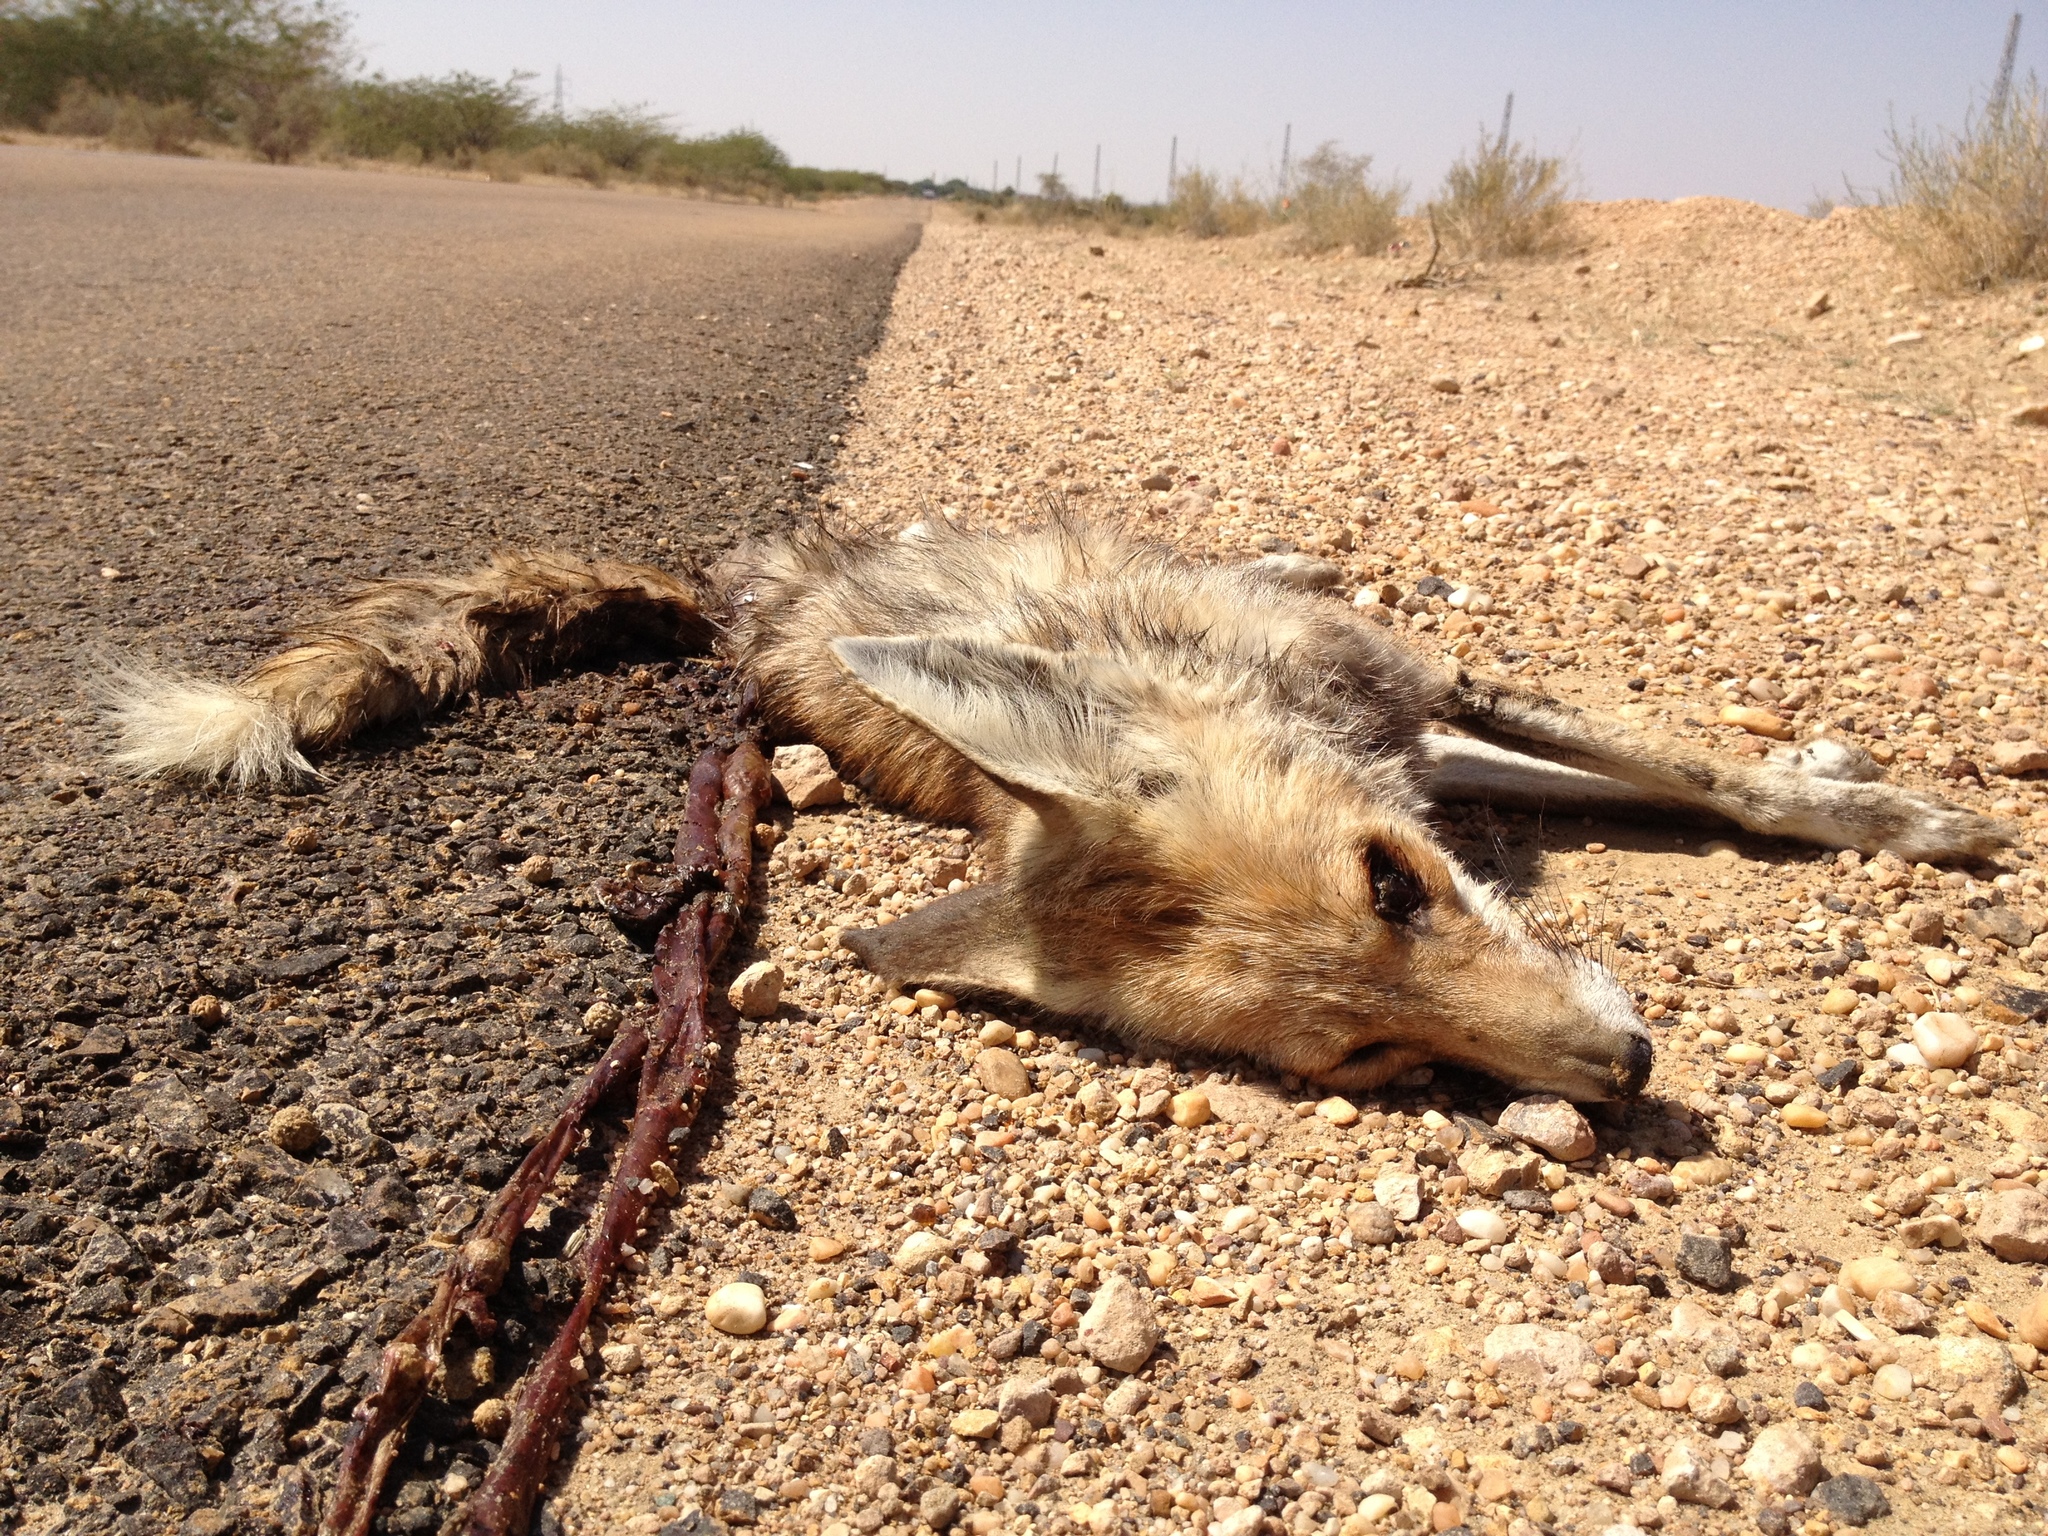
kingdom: Animalia
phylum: Chordata
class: Mammalia
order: Carnivora
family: Canidae
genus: Vulpes
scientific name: Vulpes vulpes
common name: Red fox
